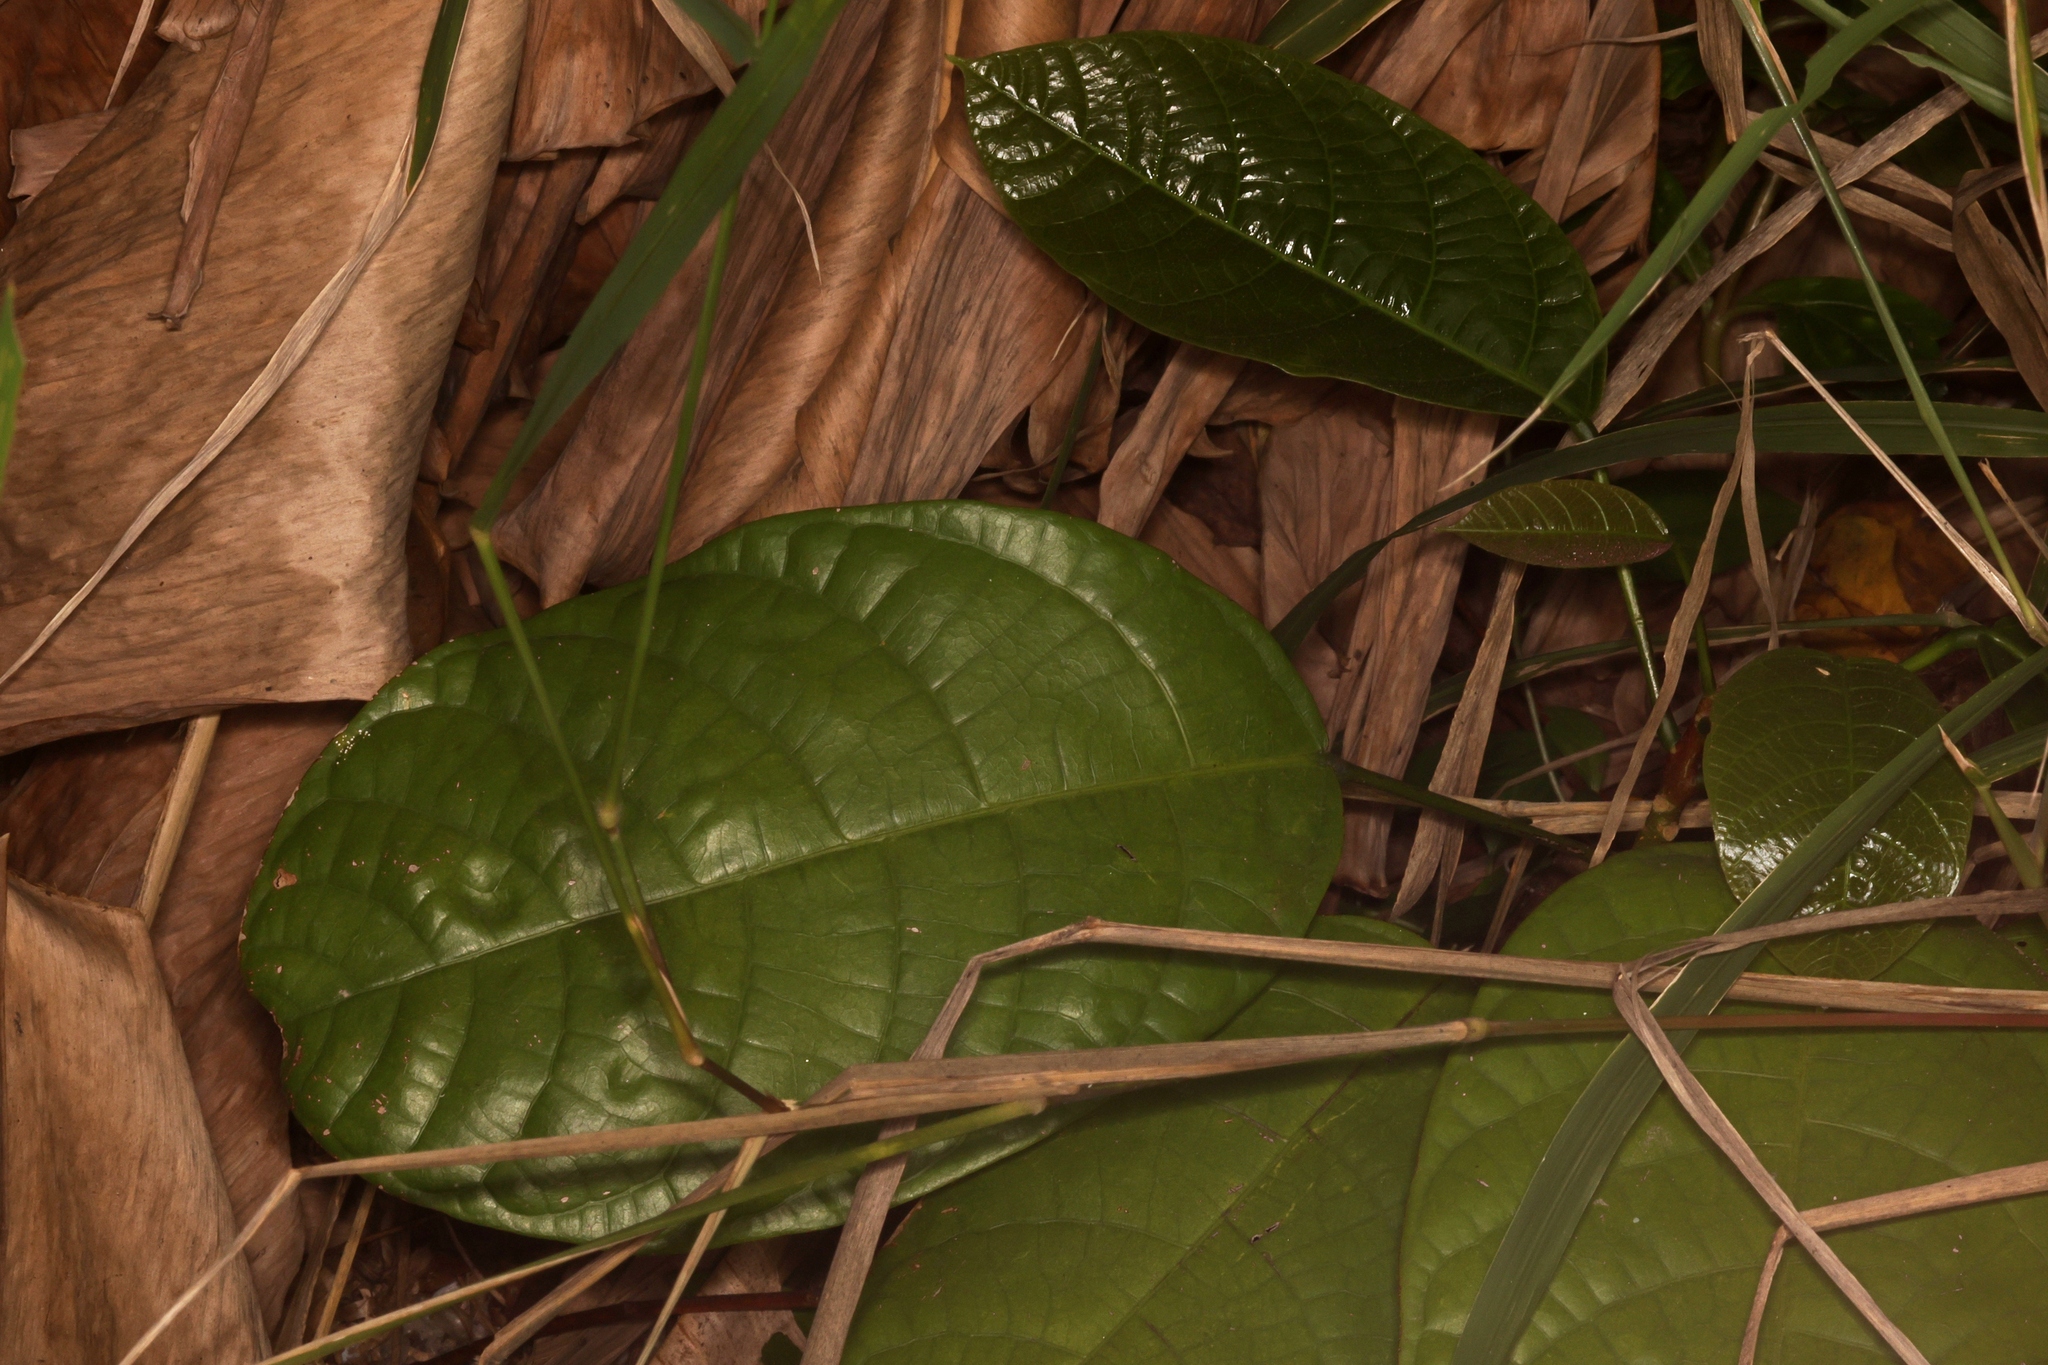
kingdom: Plantae
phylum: Tracheophyta
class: Magnoliopsida
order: Malvales
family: Malvaceae
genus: Byttneria
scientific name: Byttneria grandifolia
